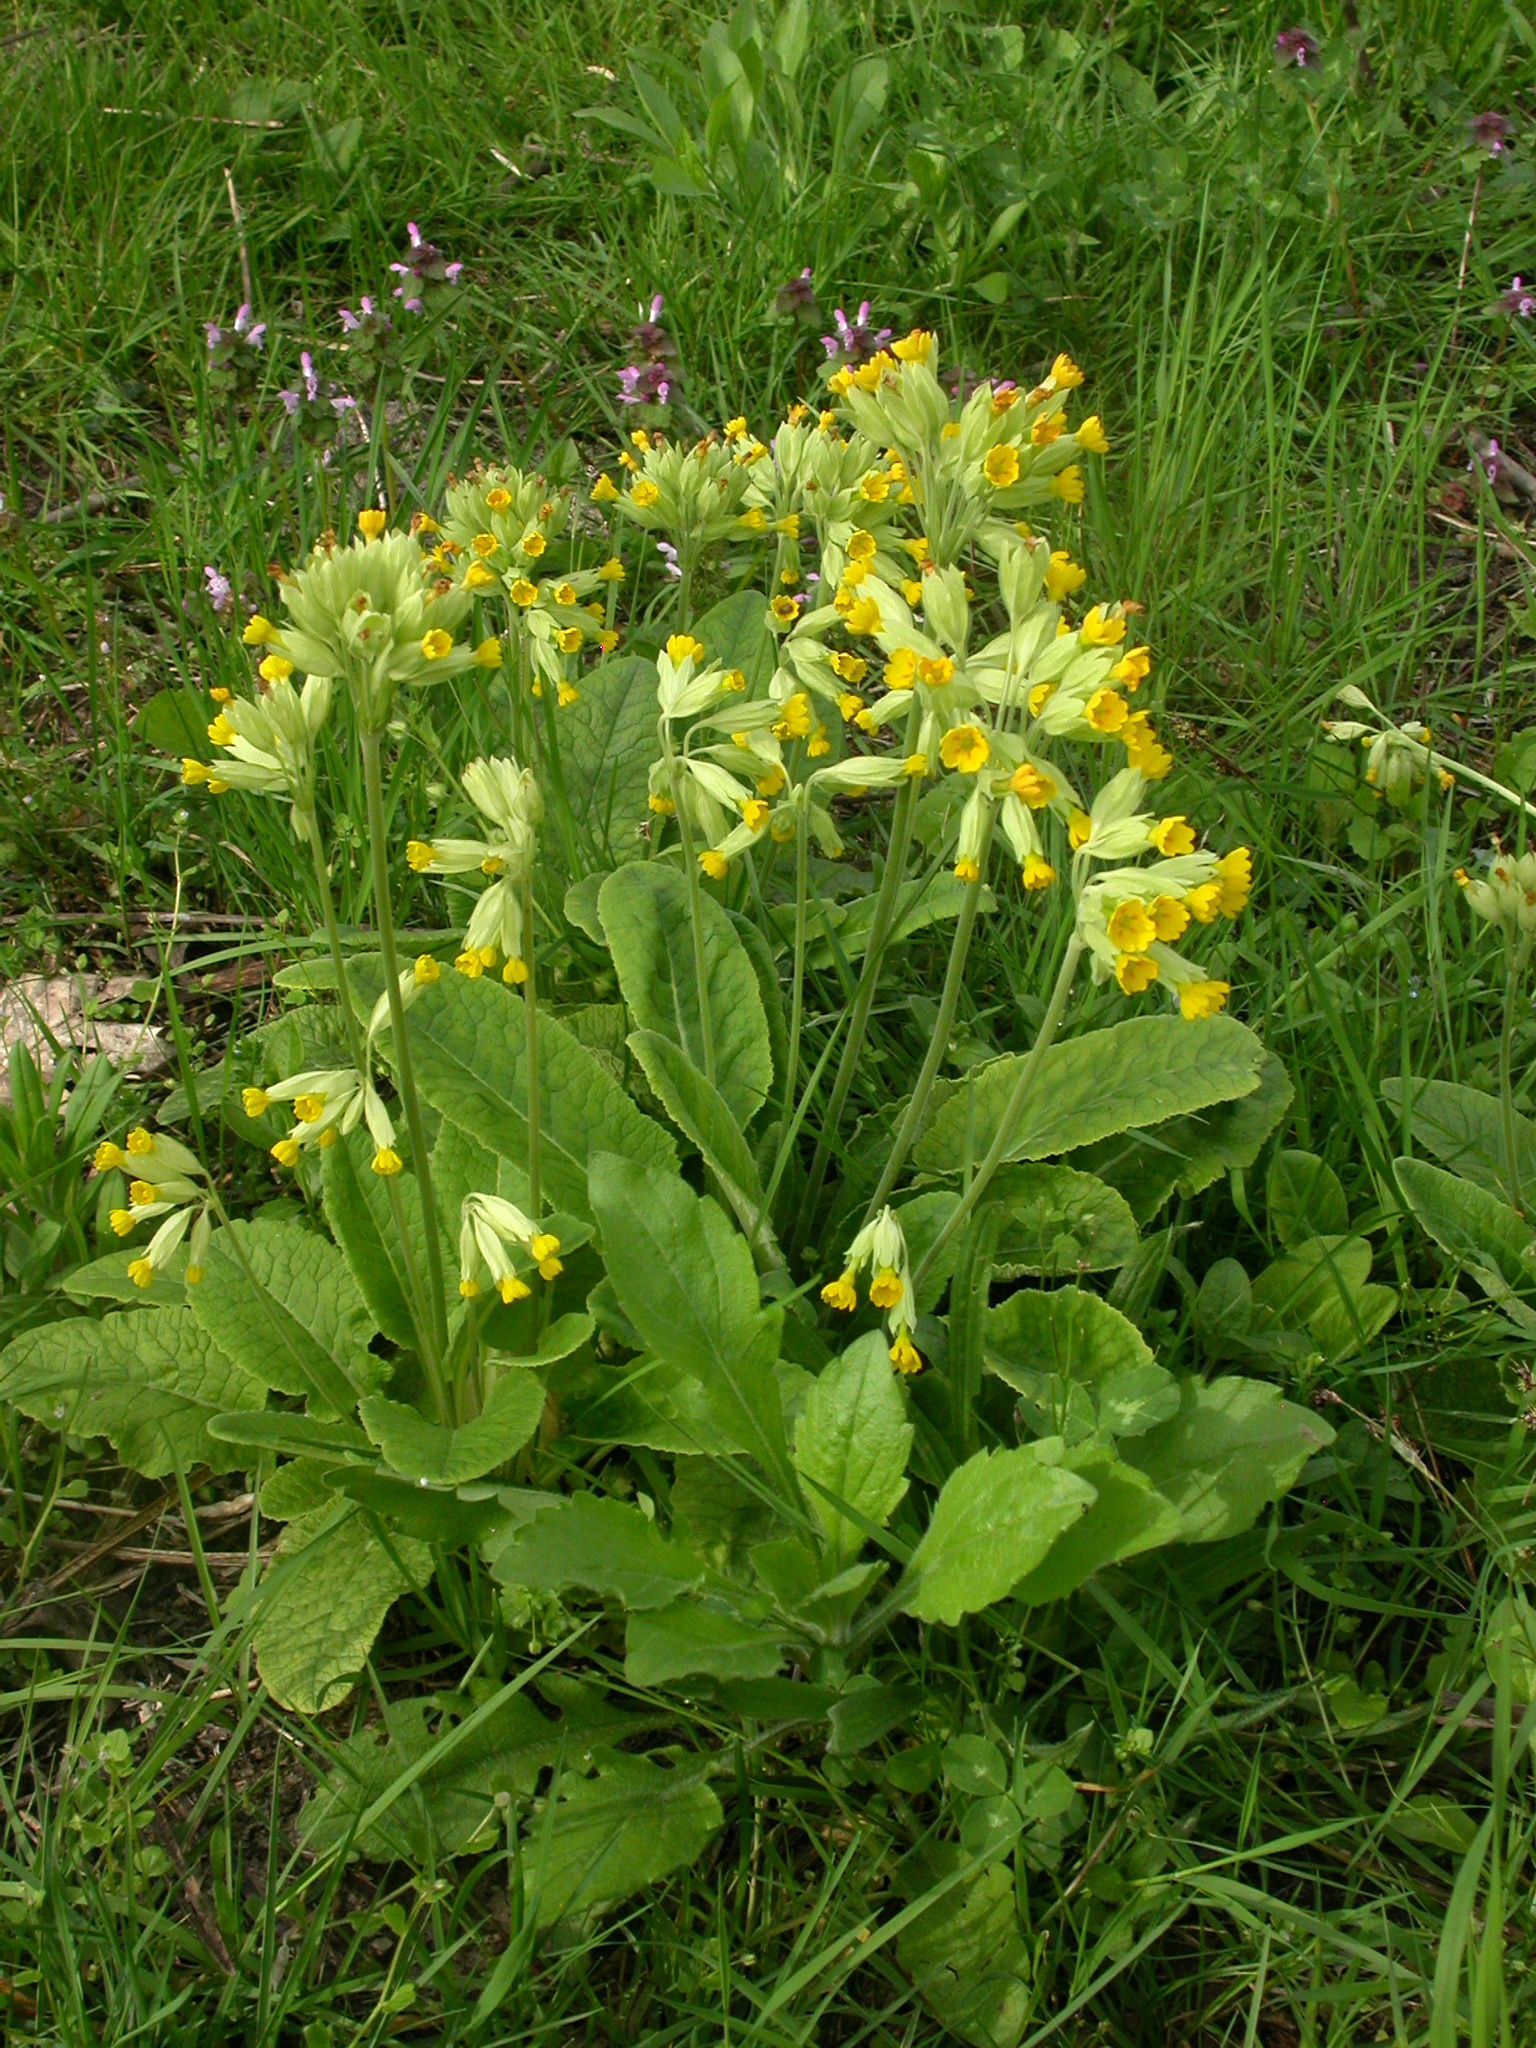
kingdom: Plantae
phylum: Tracheophyta
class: Magnoliopsida
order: Ericales
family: Primulaceae
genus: Primula
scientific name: Primula veris
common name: Cowslip
